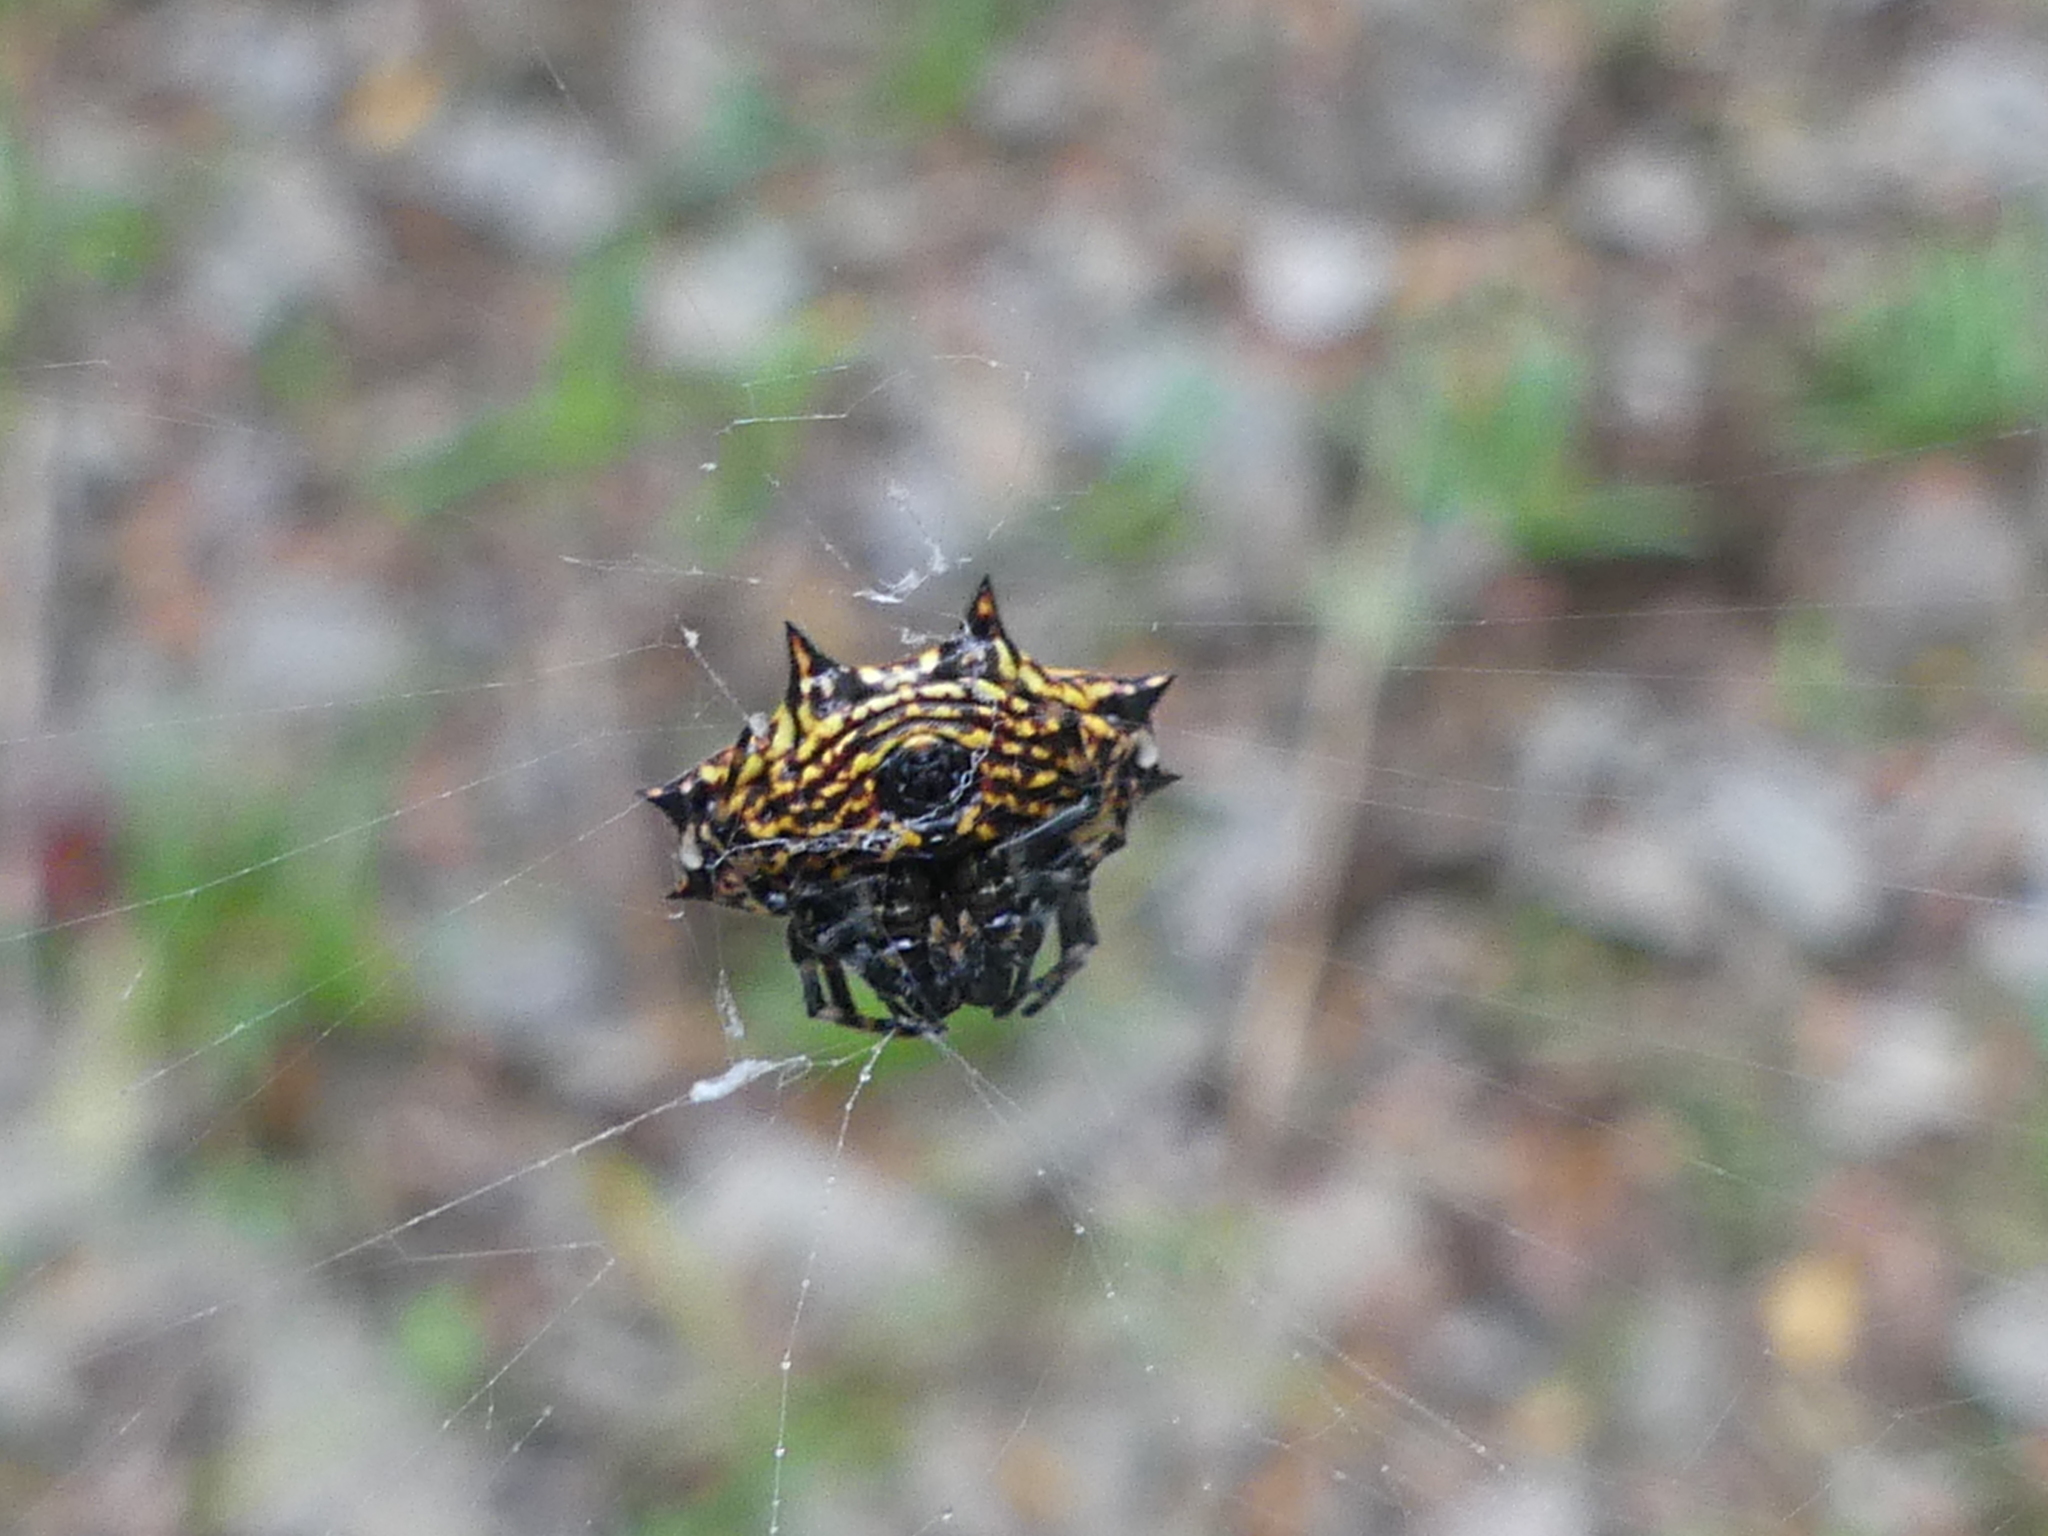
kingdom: Animalia
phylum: Arthropoda
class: Arachnida
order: Araneae
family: Araneidae
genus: Gasteracantha
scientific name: Gasteracantha cancriformis
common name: Orb weavers
